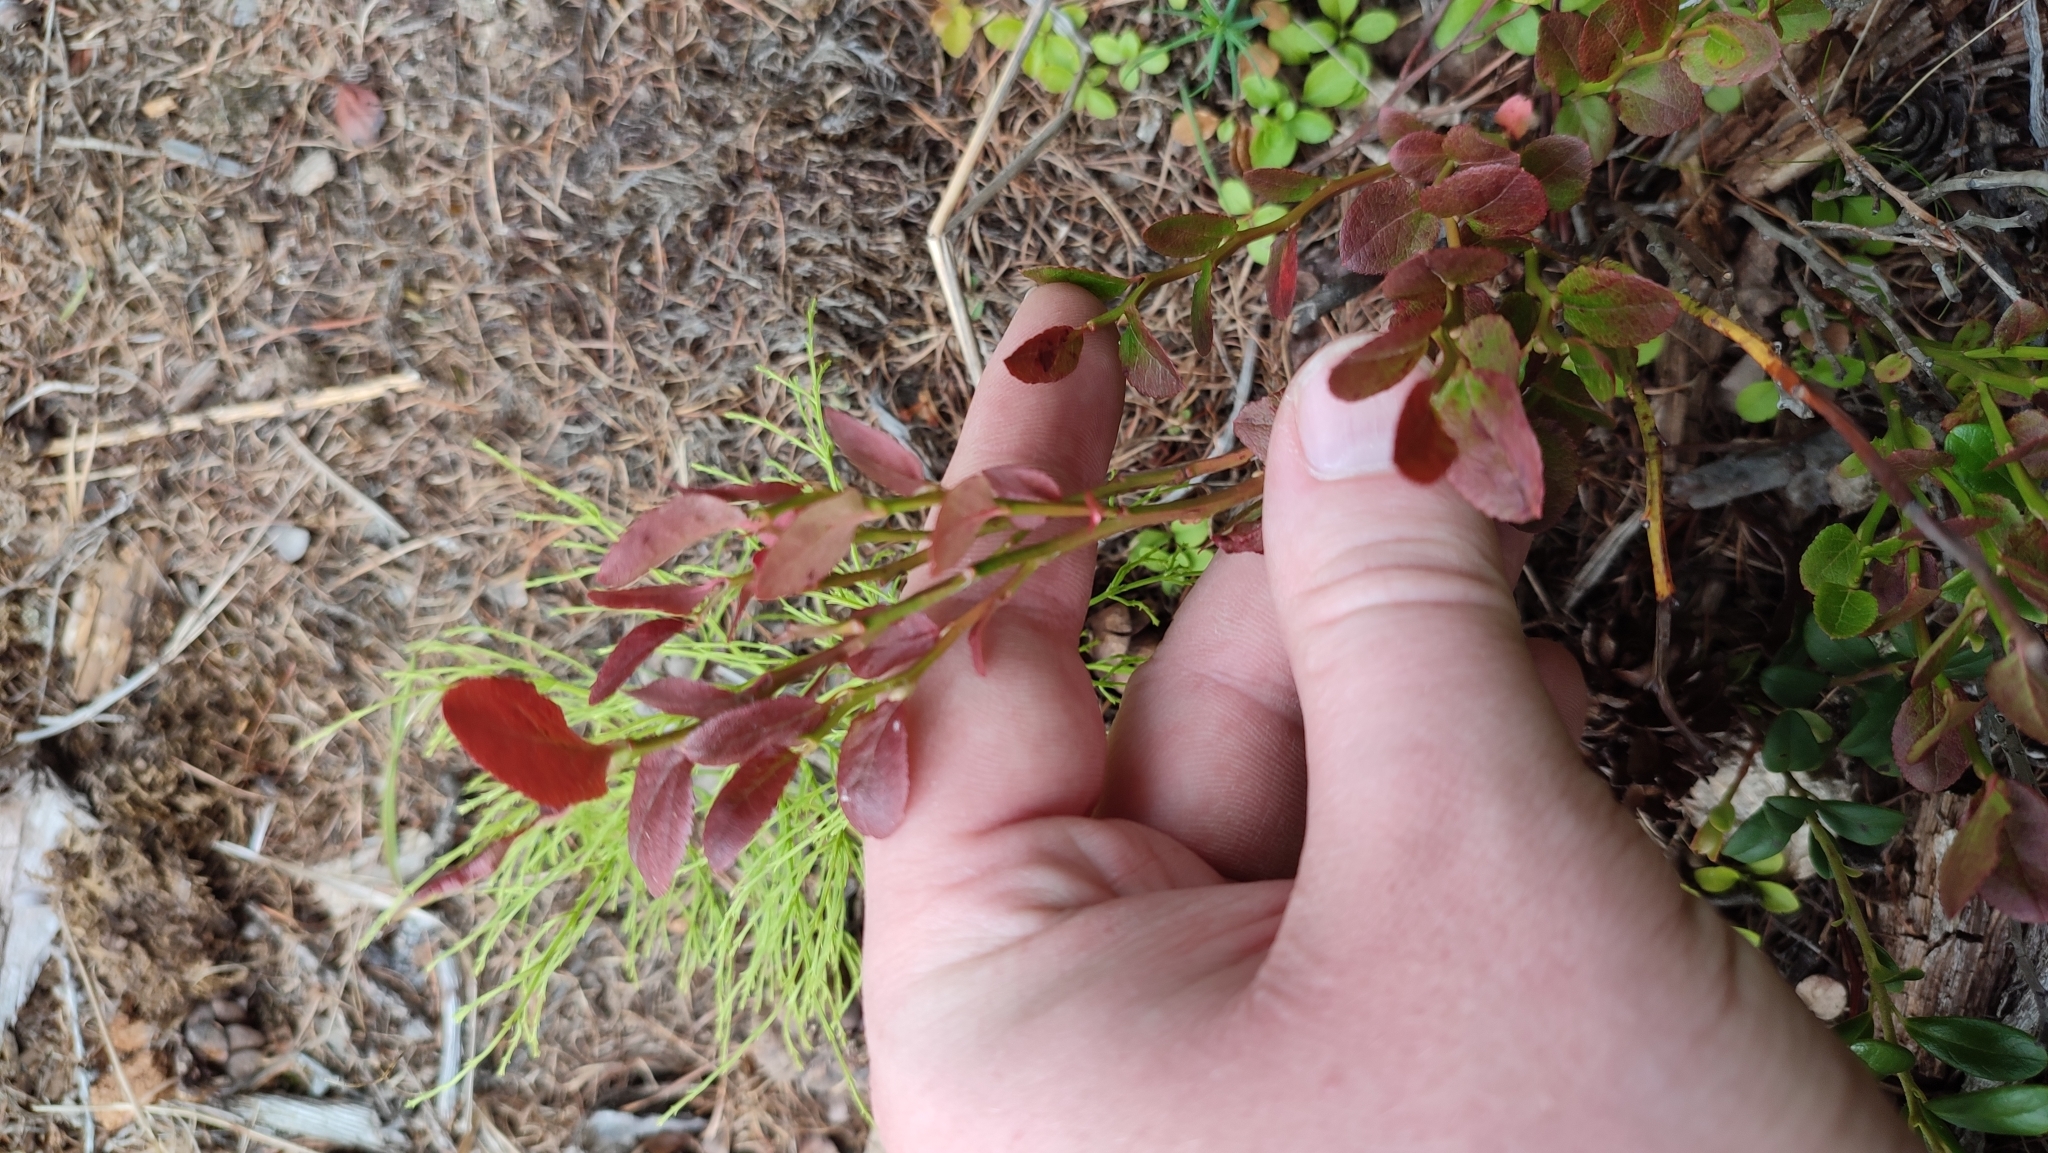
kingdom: Plantae
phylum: Tracheophyta
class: Magnoliopsida
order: Ericales
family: Ericaceae
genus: Vaccinium
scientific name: Vaccinium myrtillus
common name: Bilberry
